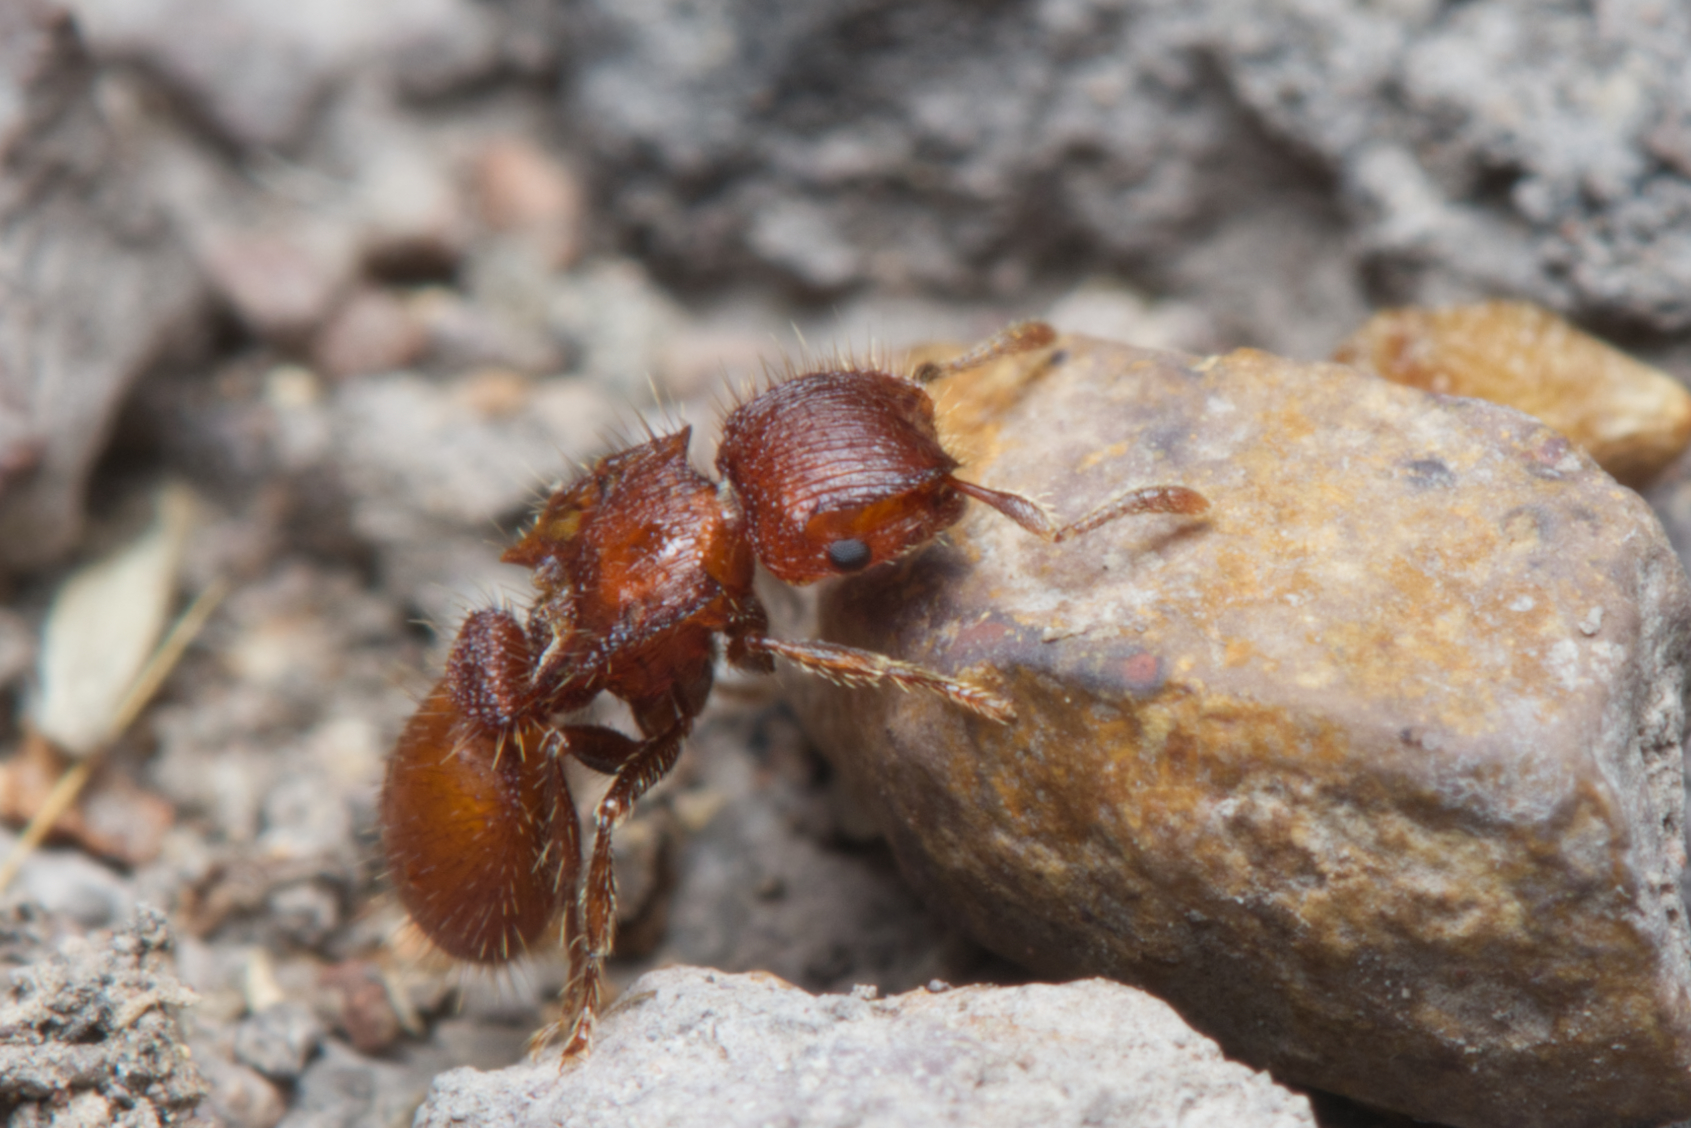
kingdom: Animalia
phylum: Arthropoda
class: Insecta
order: Hymenoptera
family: Formicidae
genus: Meranoplus
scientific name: Meranoplus pubescens
